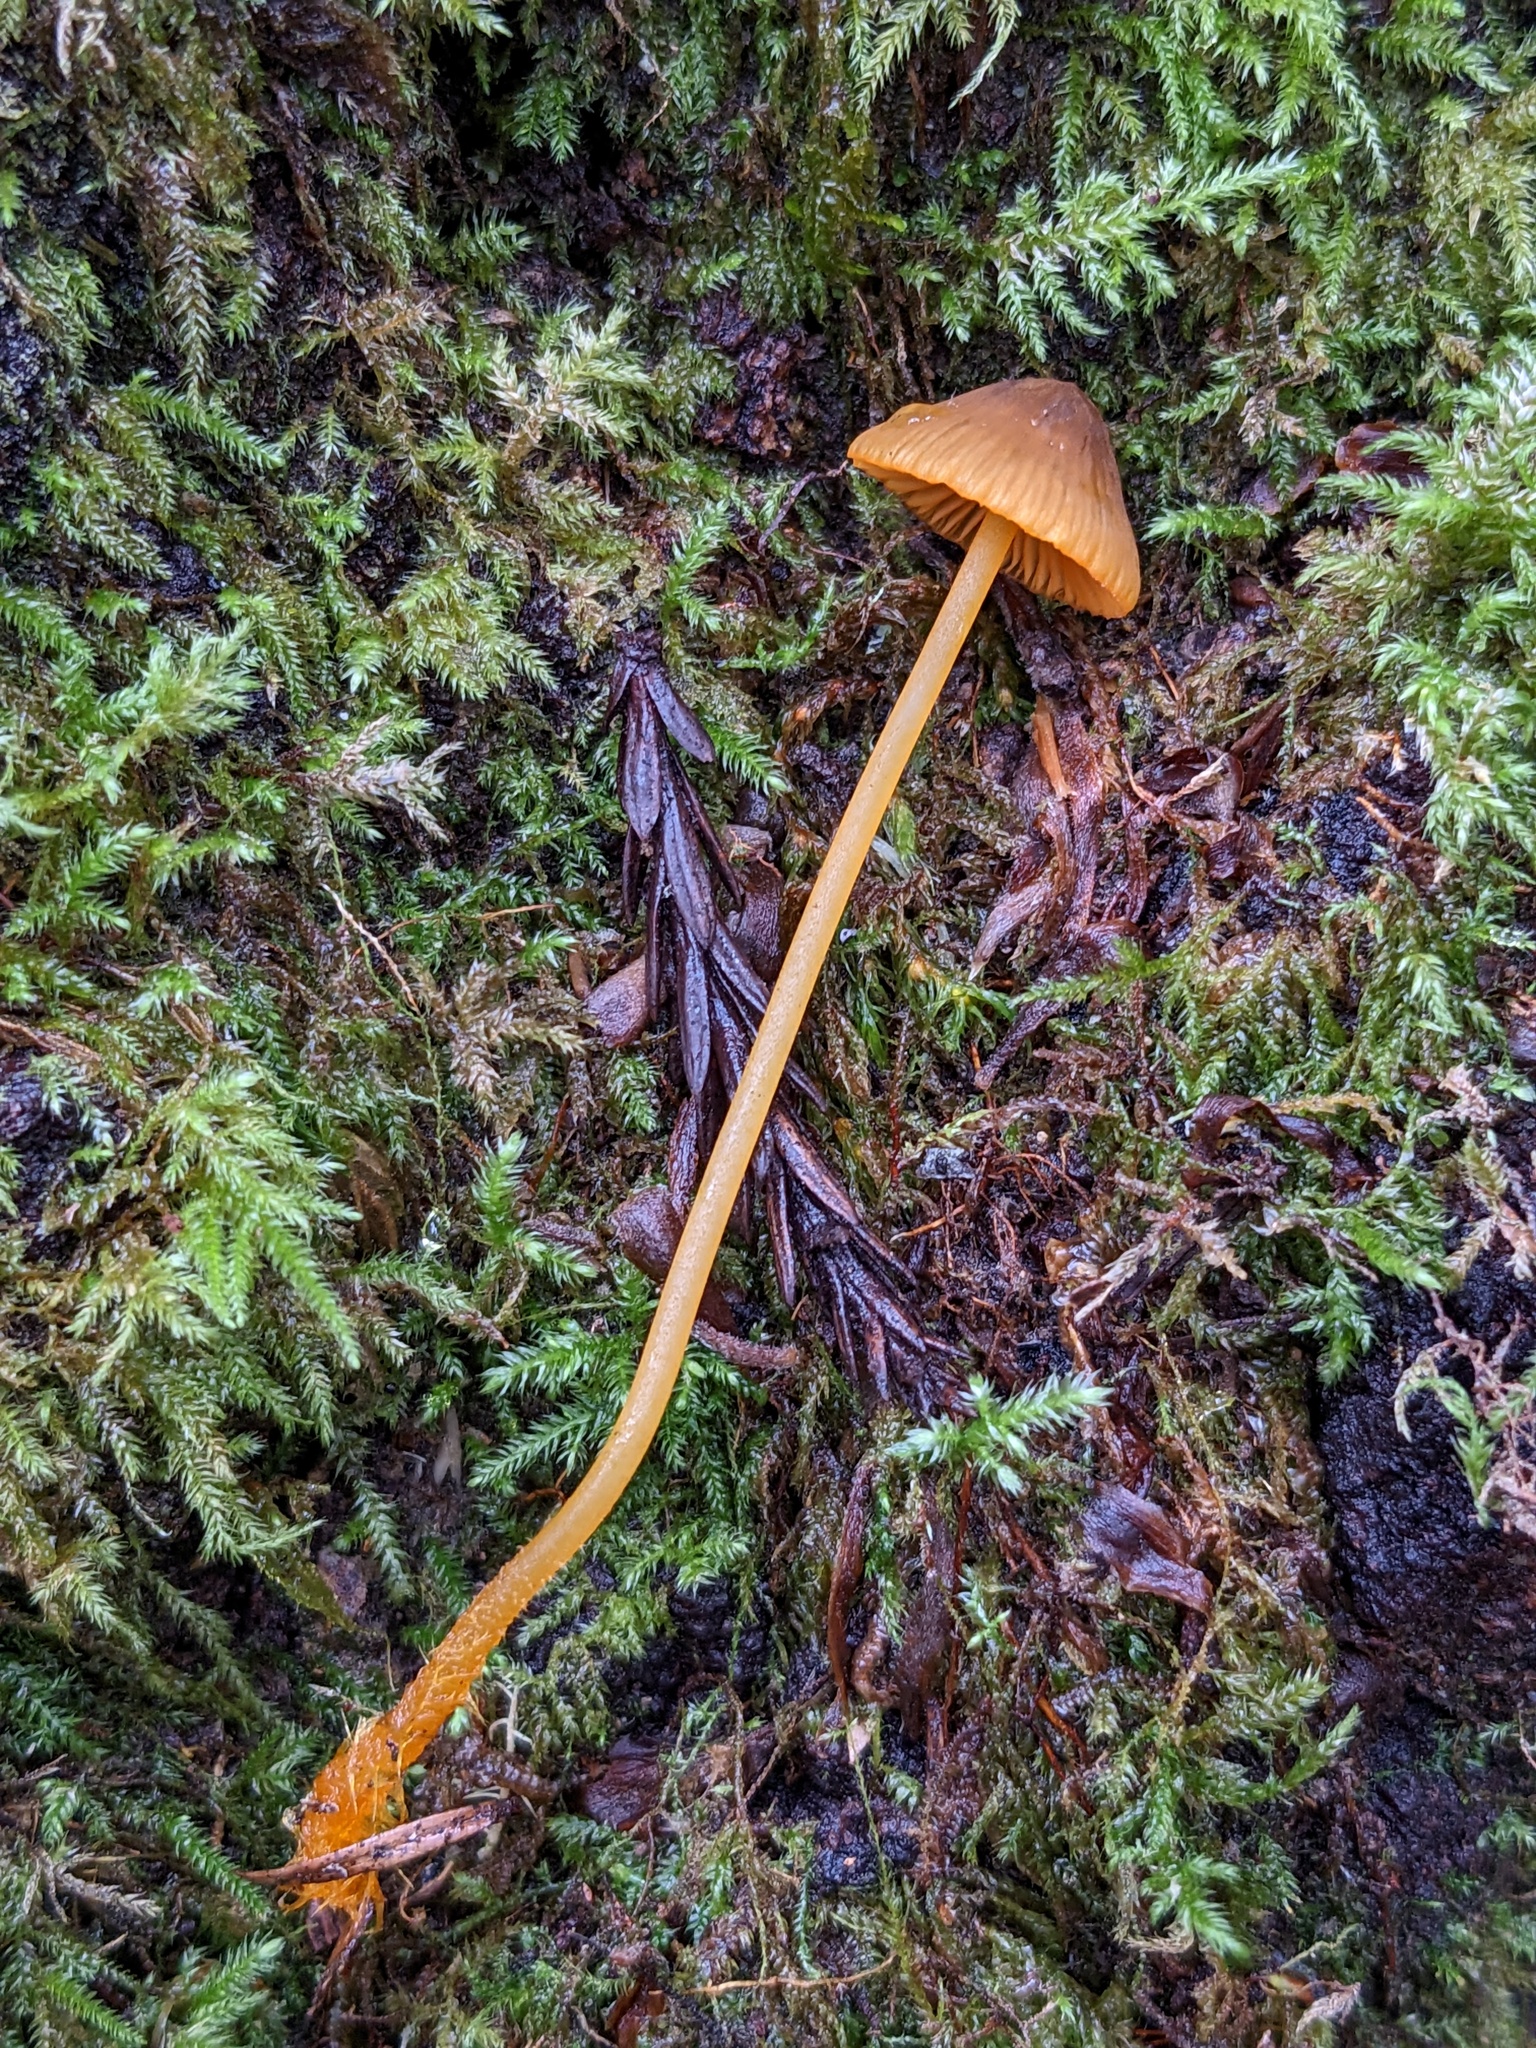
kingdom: Fungi
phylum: Basidiomycota
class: Agaricomycetes
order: Agaricales
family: Mycenaceae
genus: Mycena
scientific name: Mycena aurantiomarginata
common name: Golden edge bonnet
